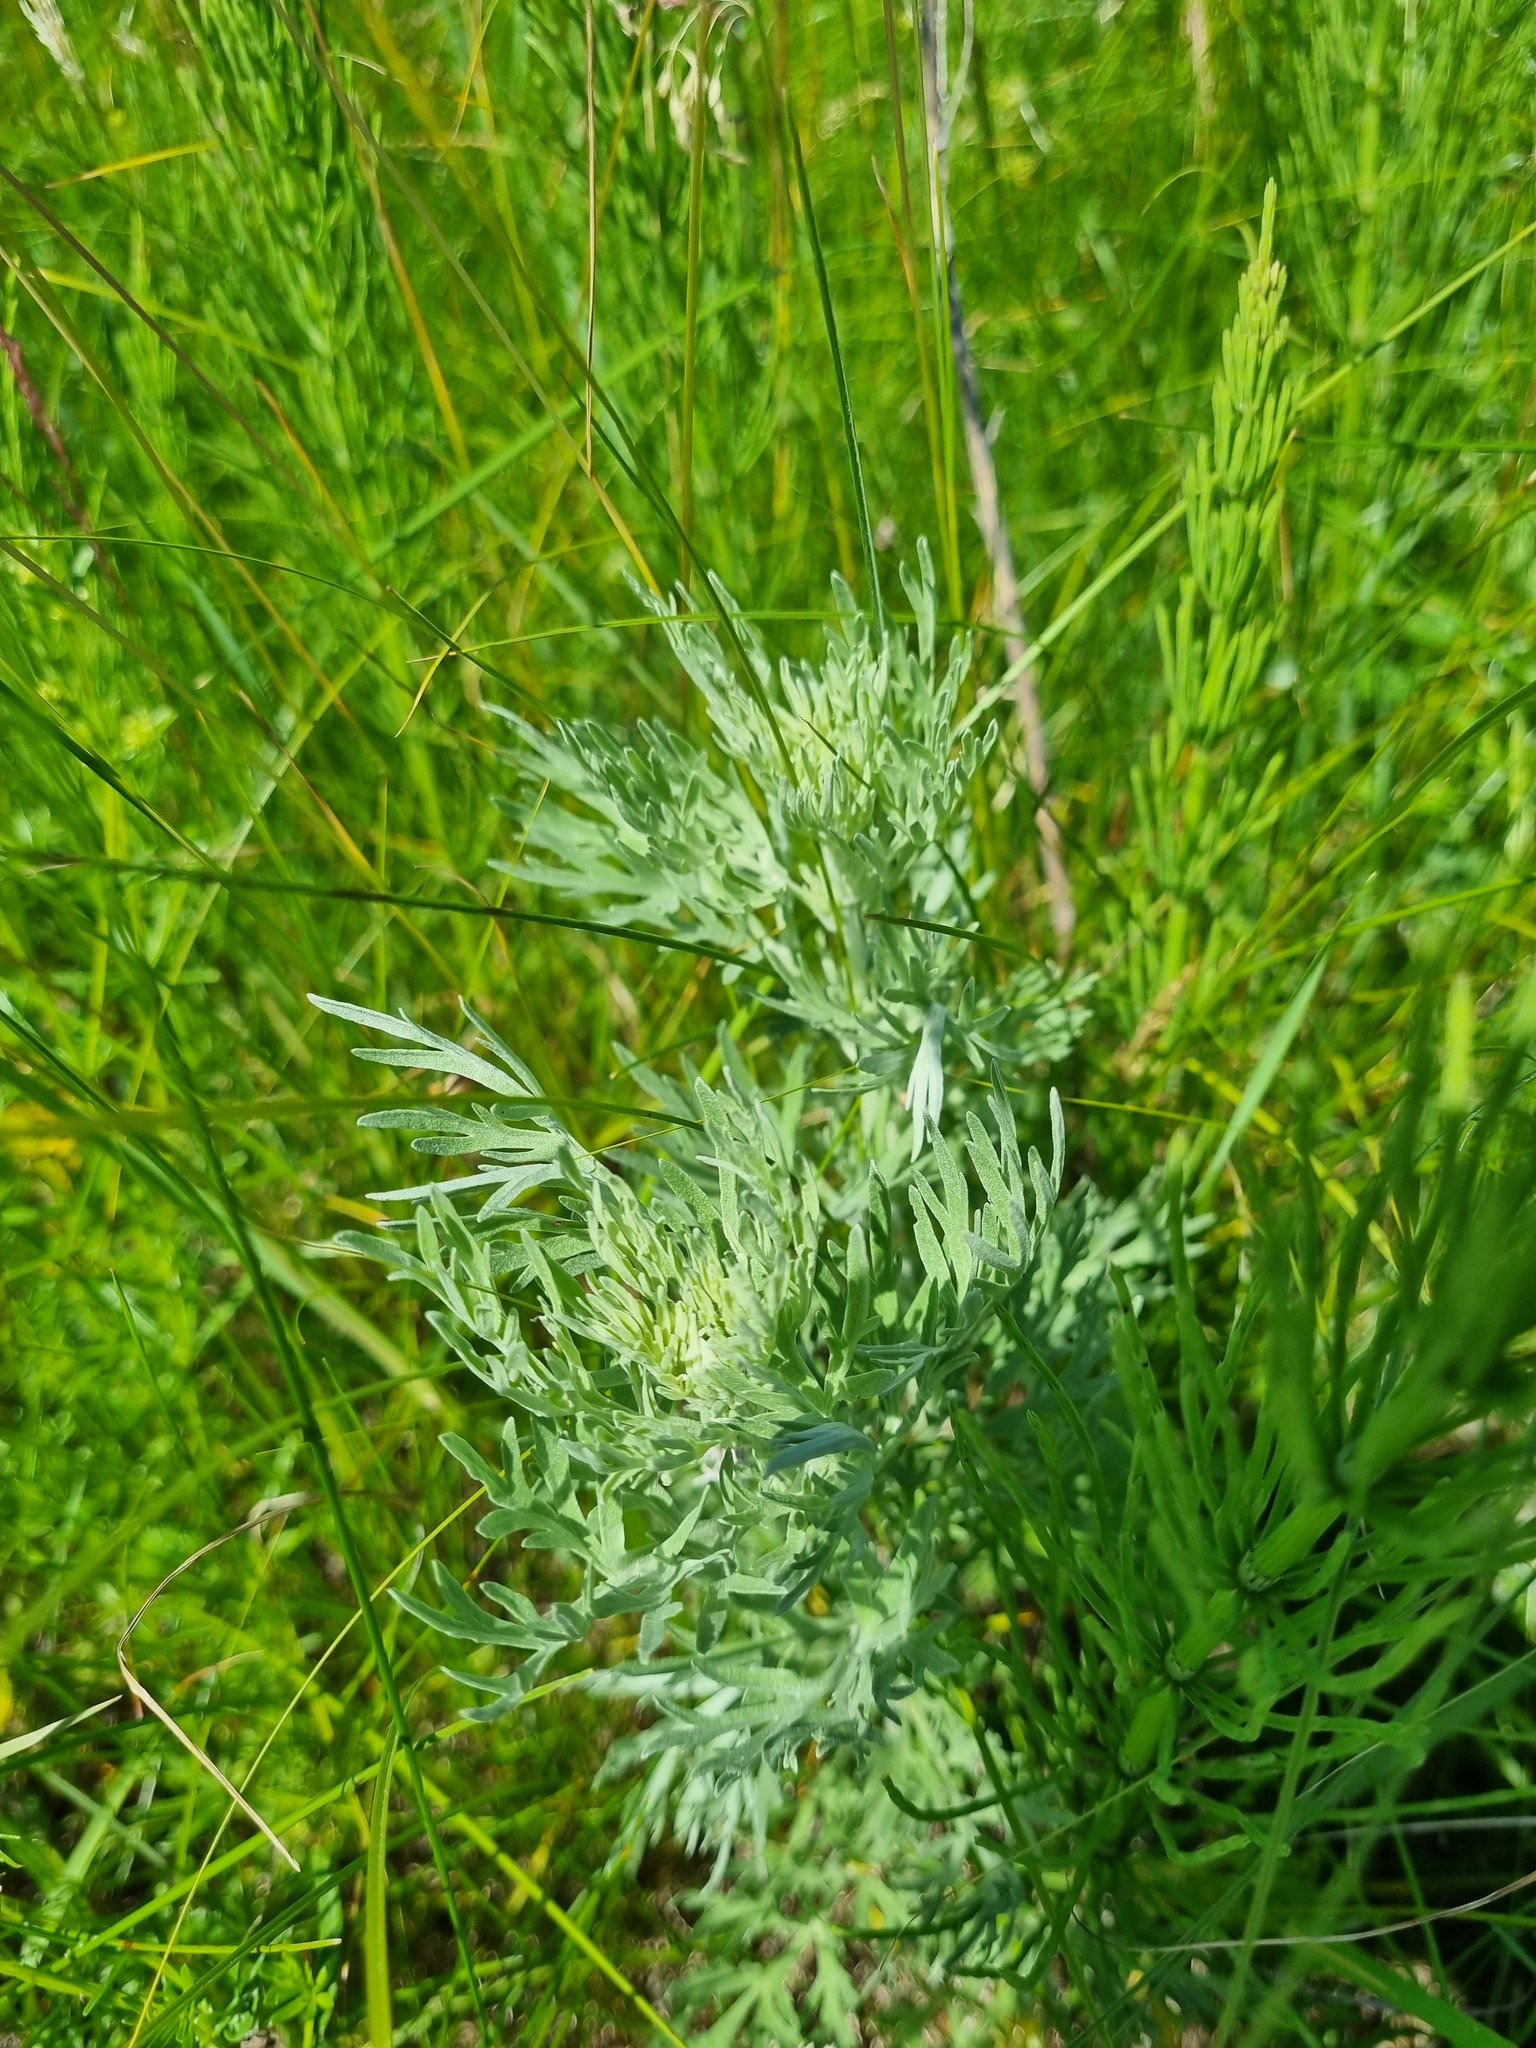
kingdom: Plantae
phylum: Tracheophyta
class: Magnoliopsida
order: Asterales
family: Asteraceae
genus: Artemisia
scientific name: Artemisia absinthium
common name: Wormwood
